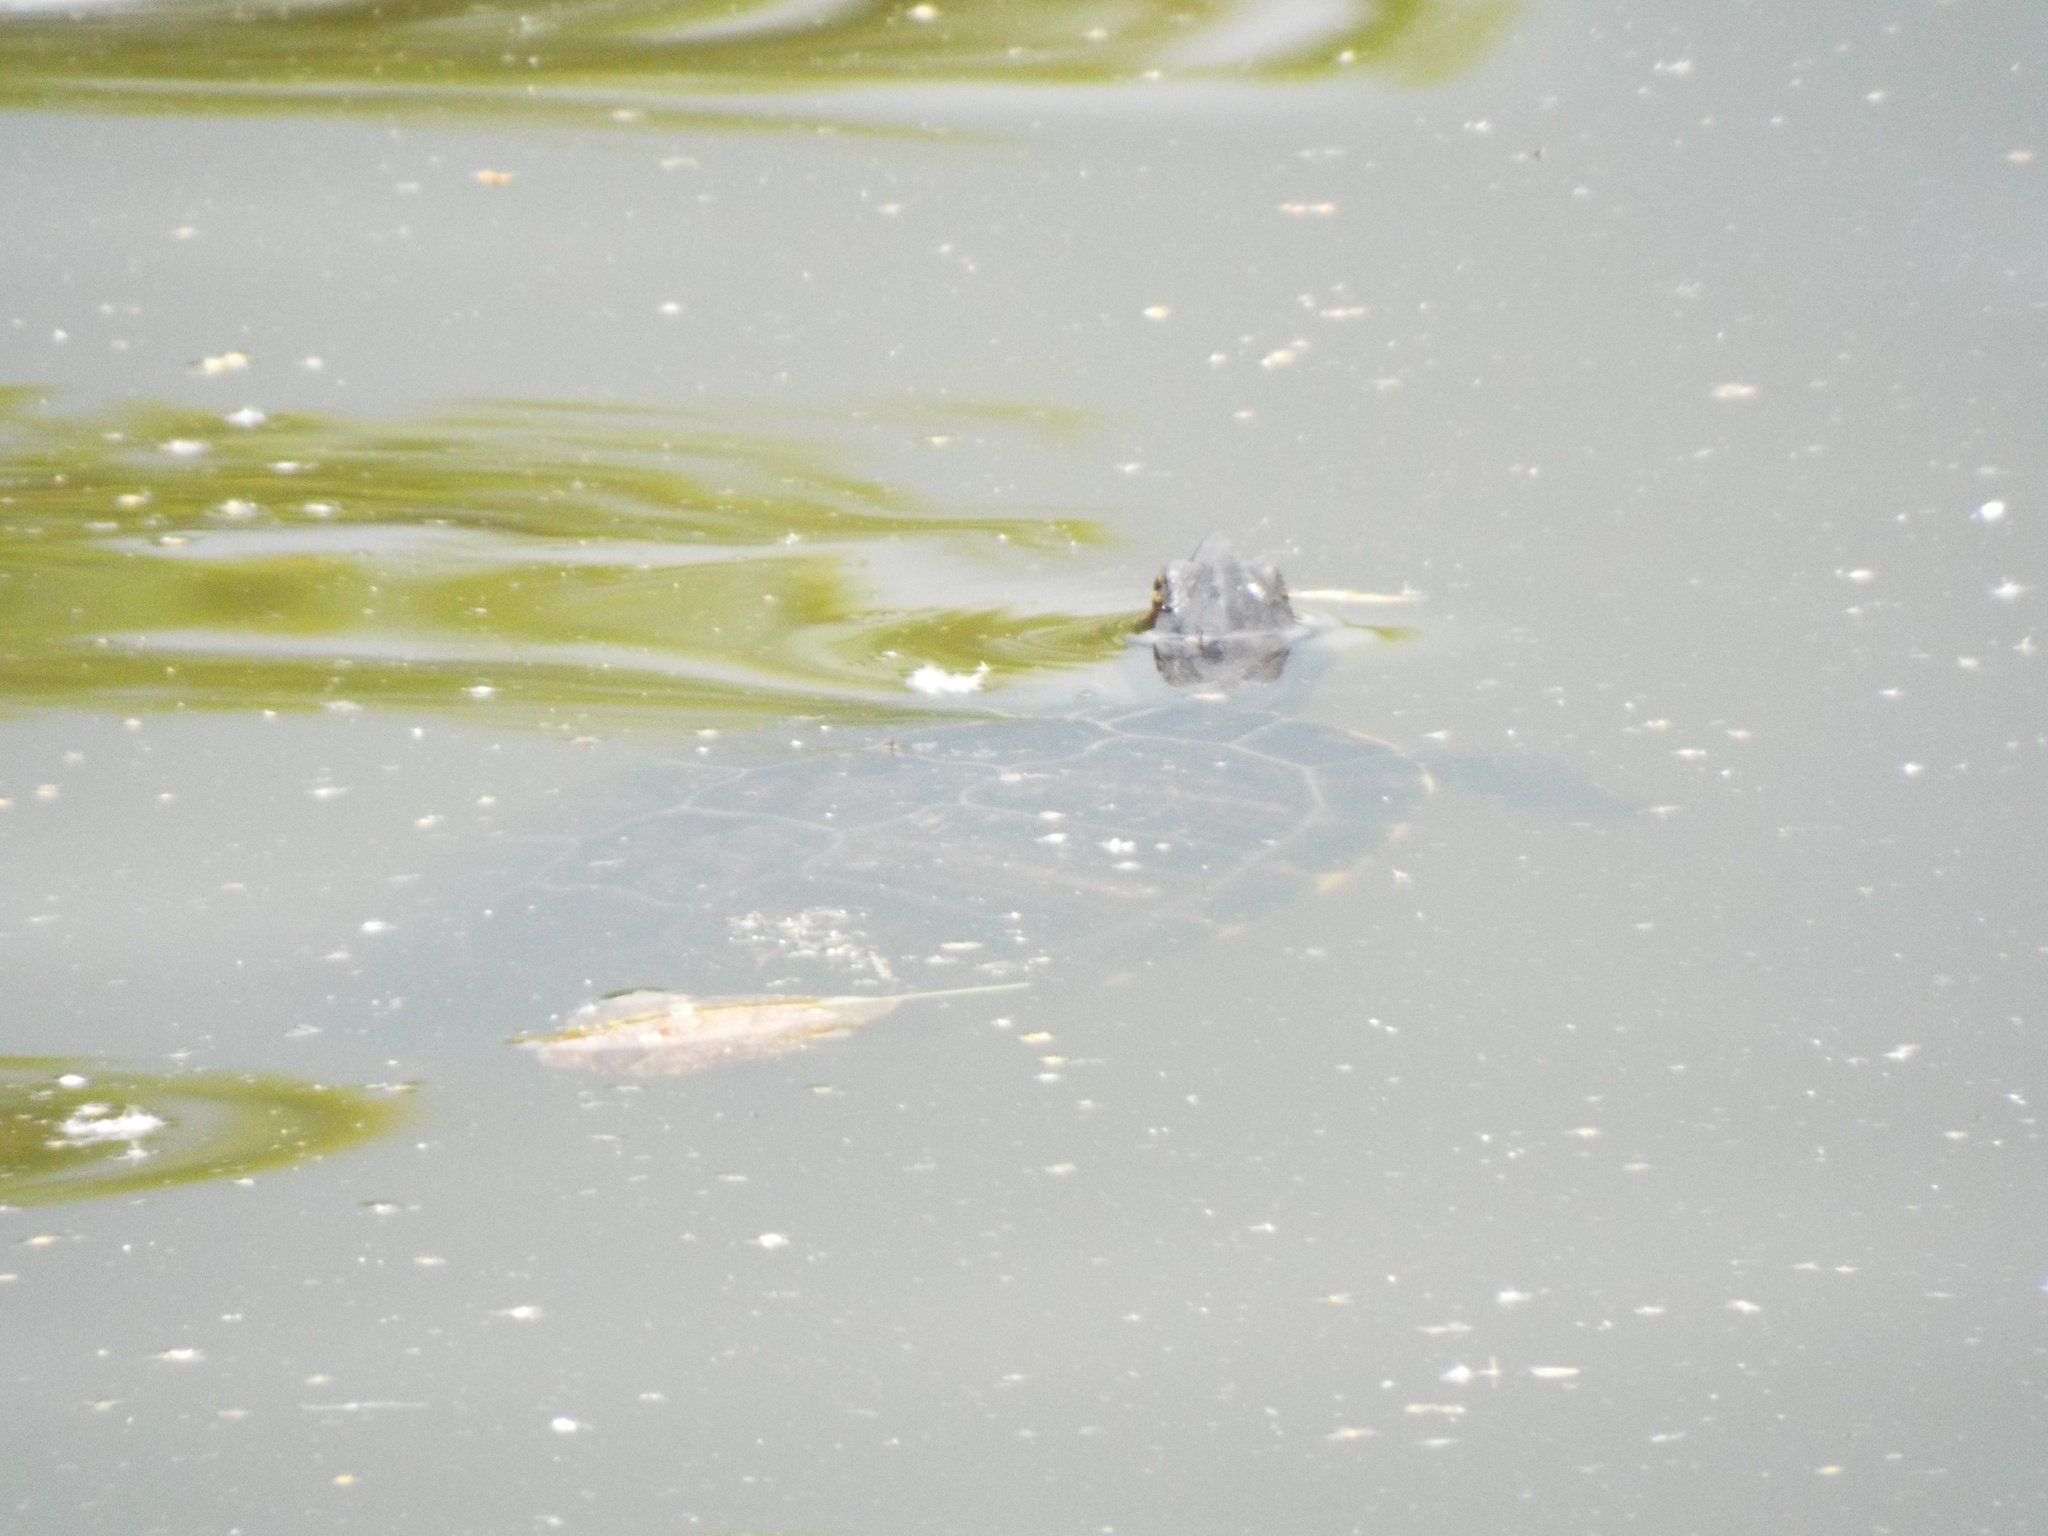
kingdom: Animalia
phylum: Chordata
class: Testudines
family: Emydidae
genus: Trachemys
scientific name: Trachemys scripta
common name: Slider
